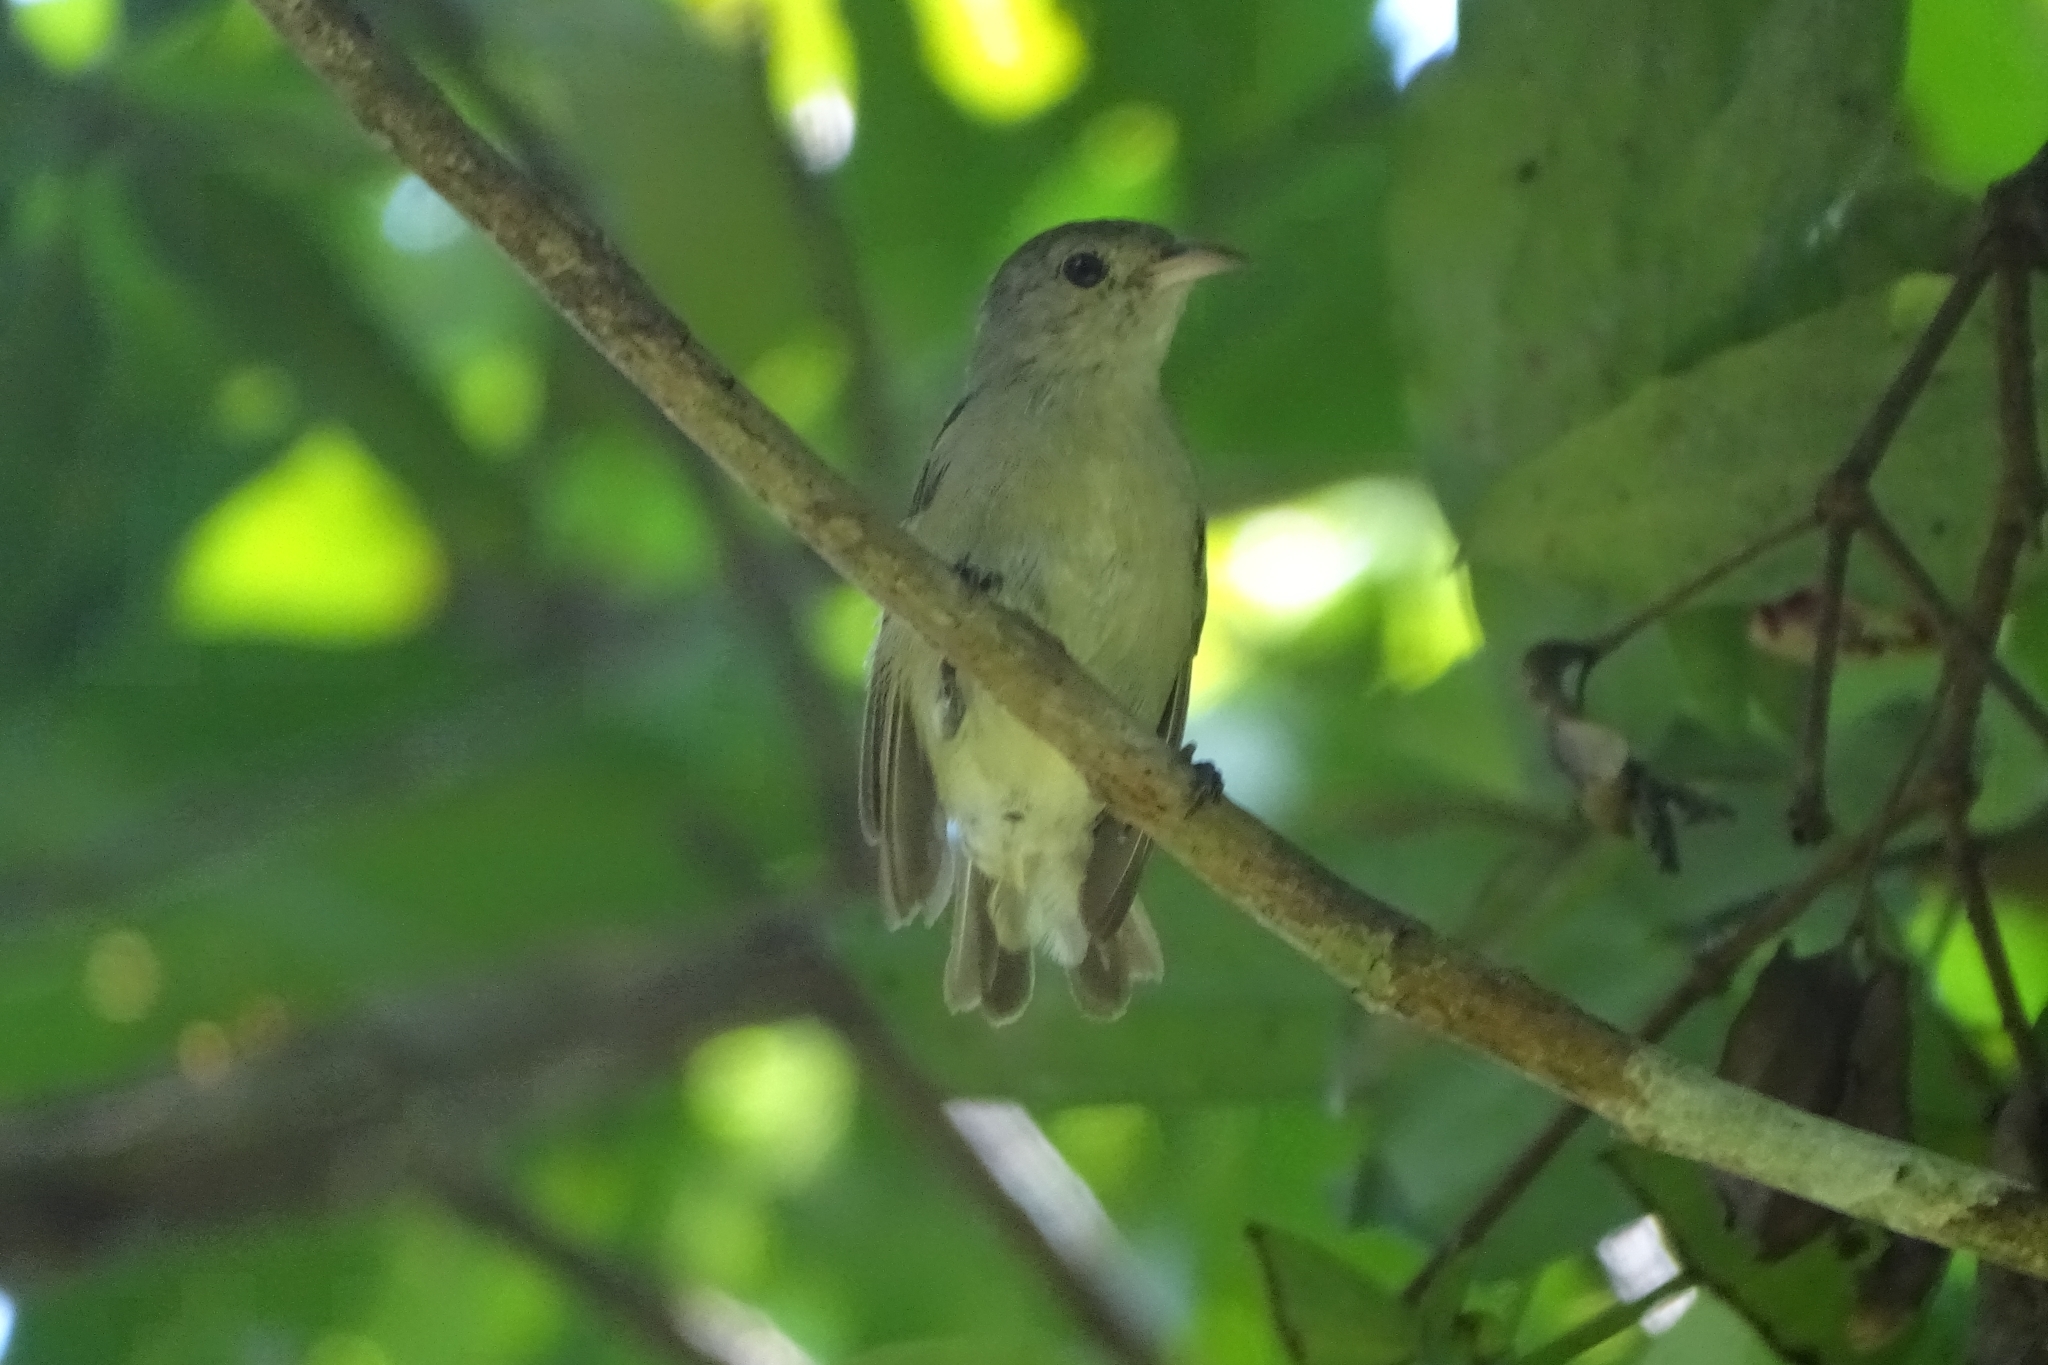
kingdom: Animalia
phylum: Chordata
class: Aves
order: Passeriformes
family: Dicaeidae
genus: Dicaeum
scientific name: Dicaeum erythrorhynchos
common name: Pale-billed flowerpecker
